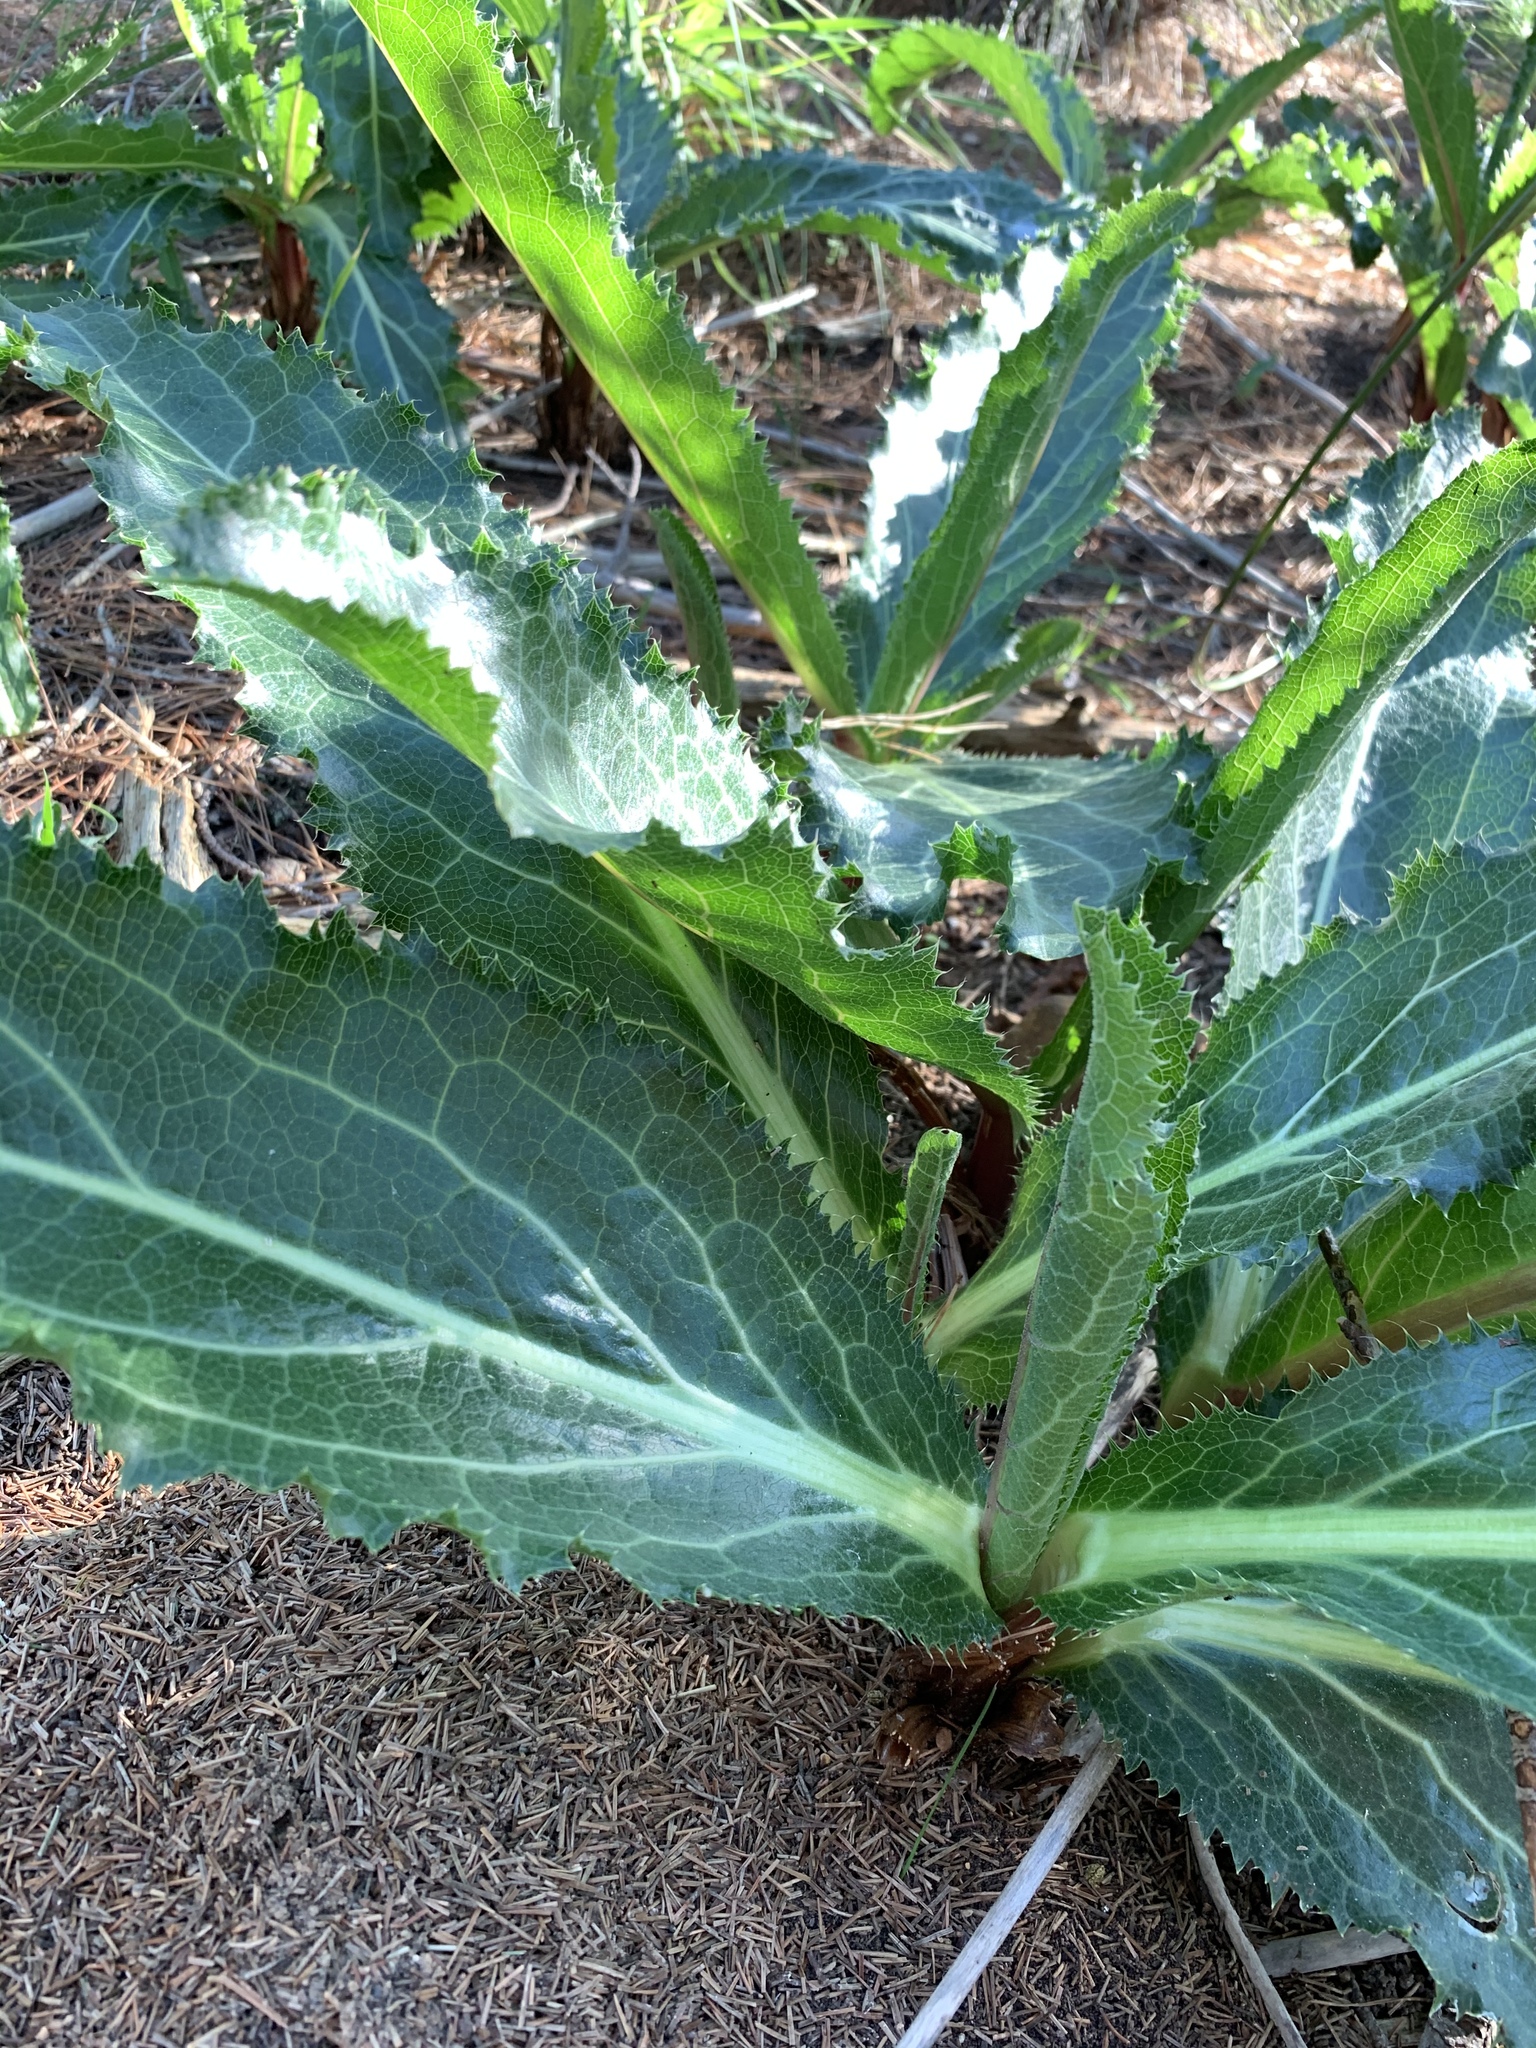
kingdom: Plantae
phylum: Tracheophyta
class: Magnoliopsida
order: Apiales
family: Apiaceae
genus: Lichtensteinia
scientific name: Lichtensteinia lacera
